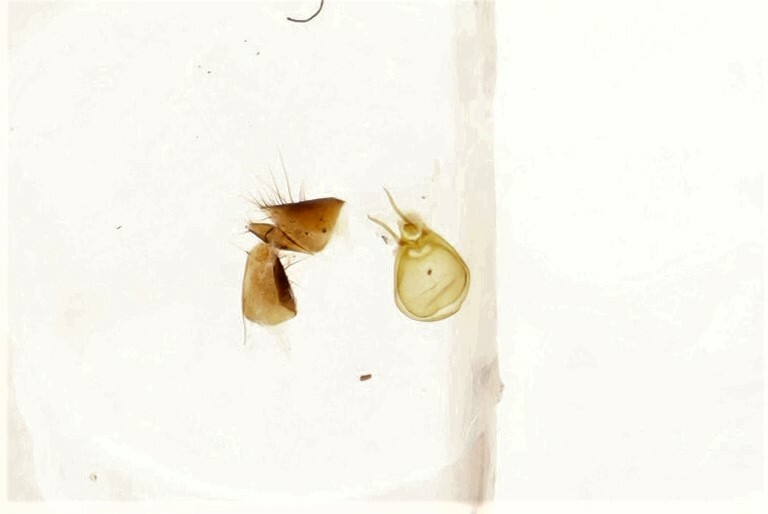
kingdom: Animalia
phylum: Arthropoda
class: Insecta
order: Coleoptera
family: Staphylinidae
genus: Leptacinus
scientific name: Leptacinus intermedius
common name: Staph beetle
